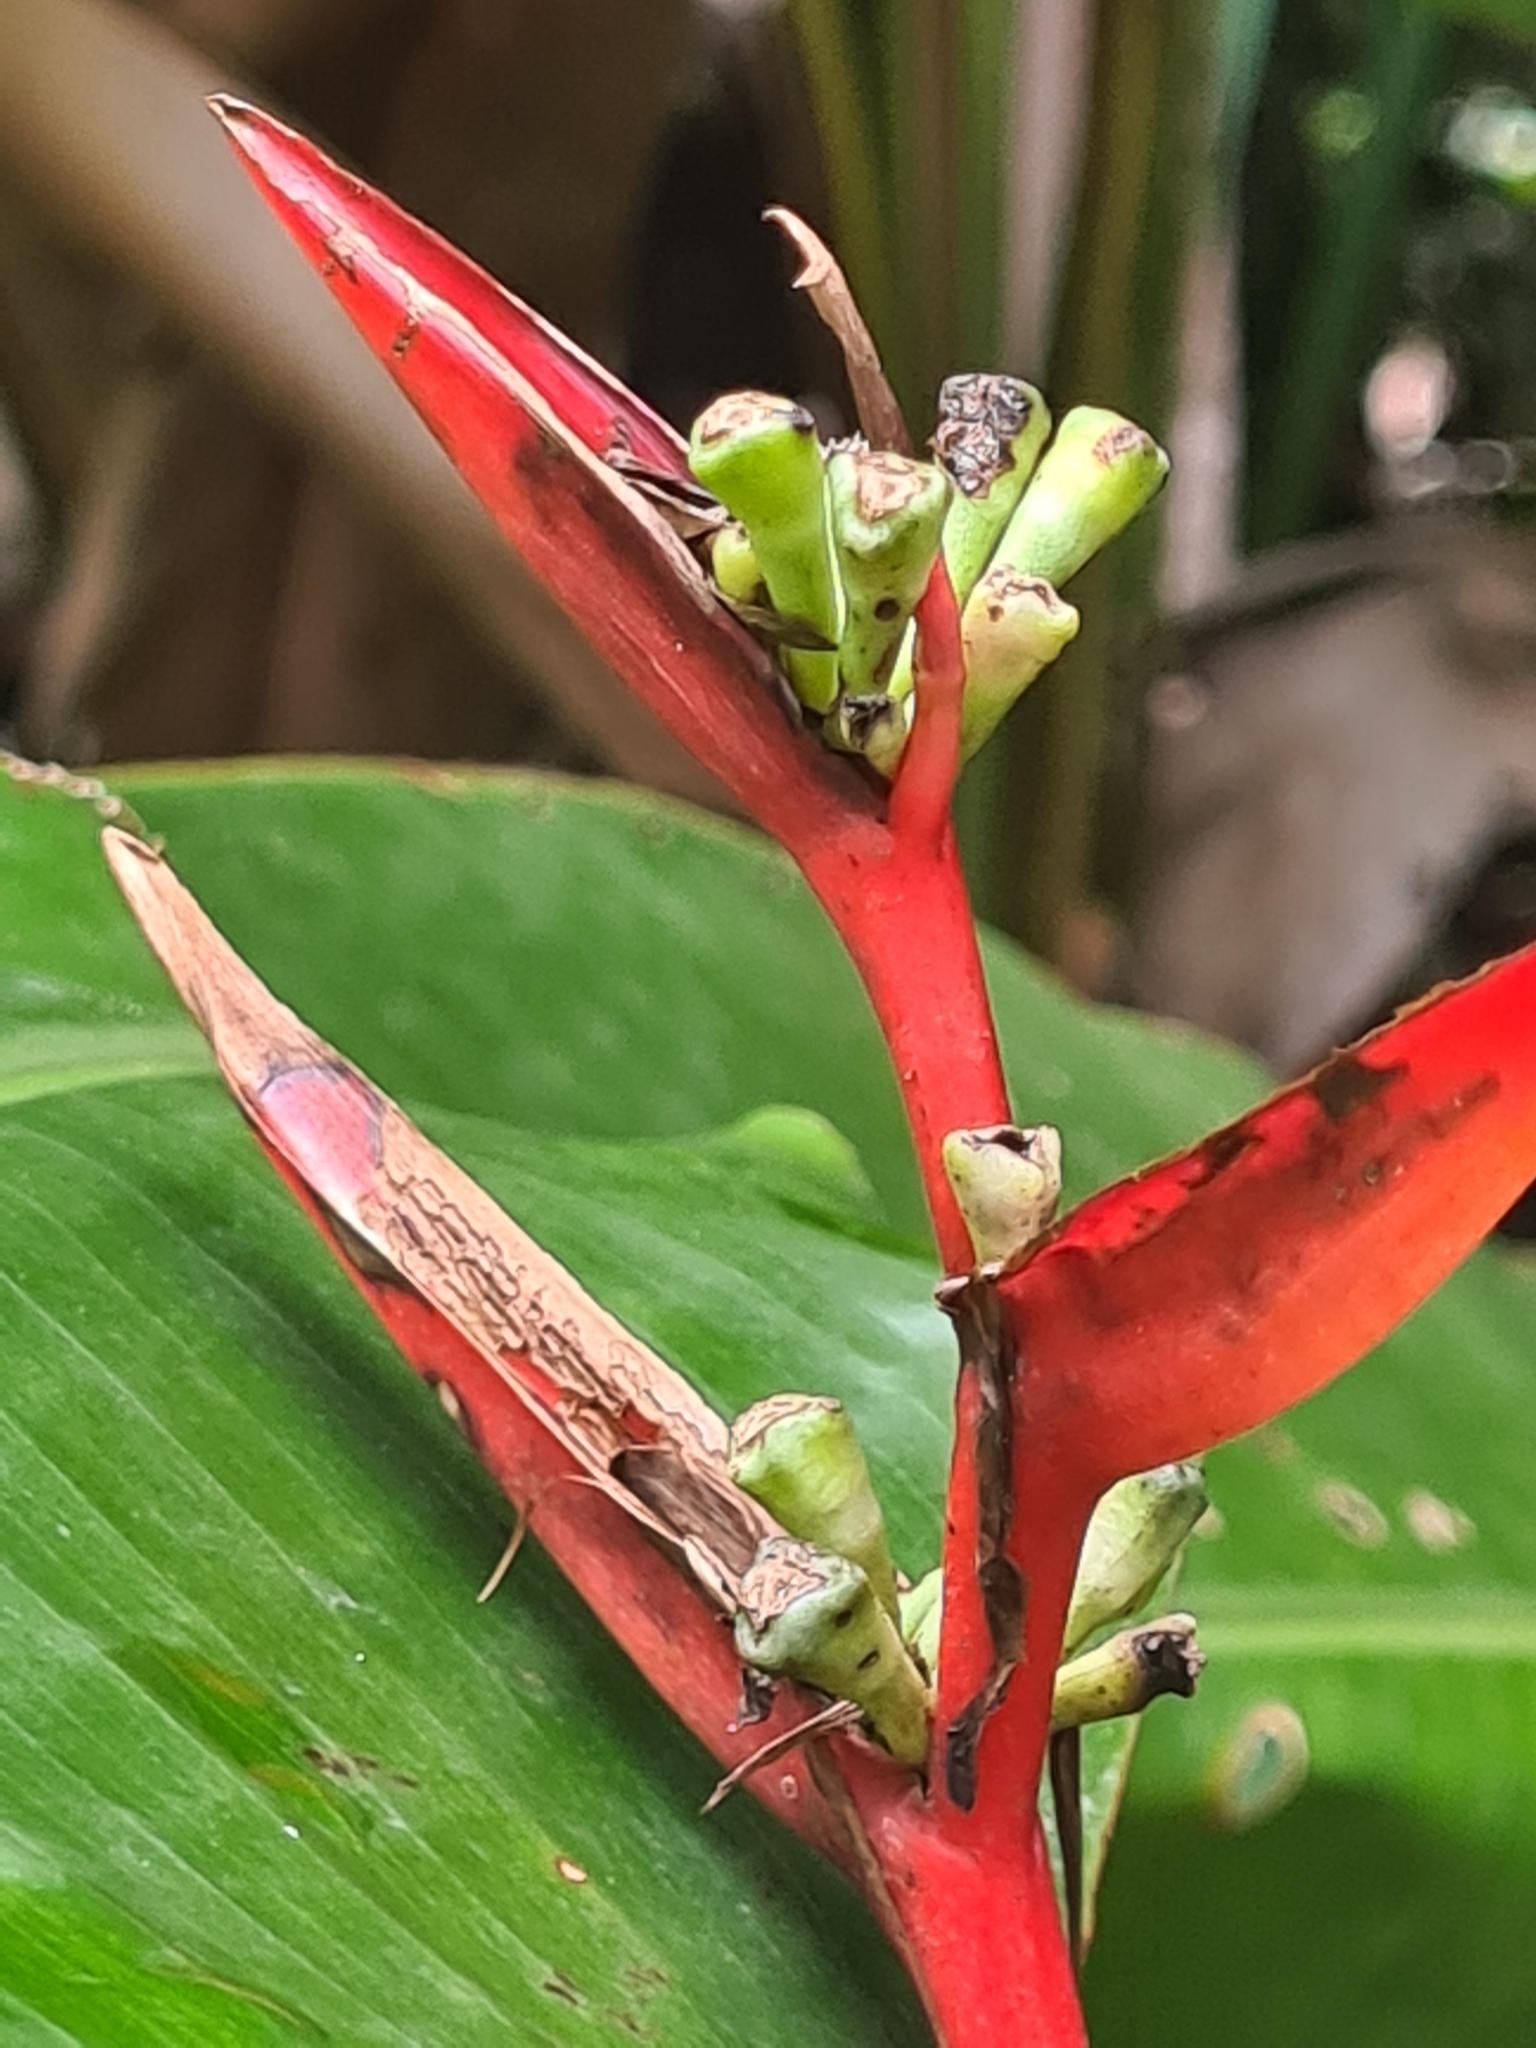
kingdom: Plantae
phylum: Tracheophyta
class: Liliopsida
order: Zingiberales
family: Heliconiaceae
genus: Heliconia
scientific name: Heliconia acuminata
